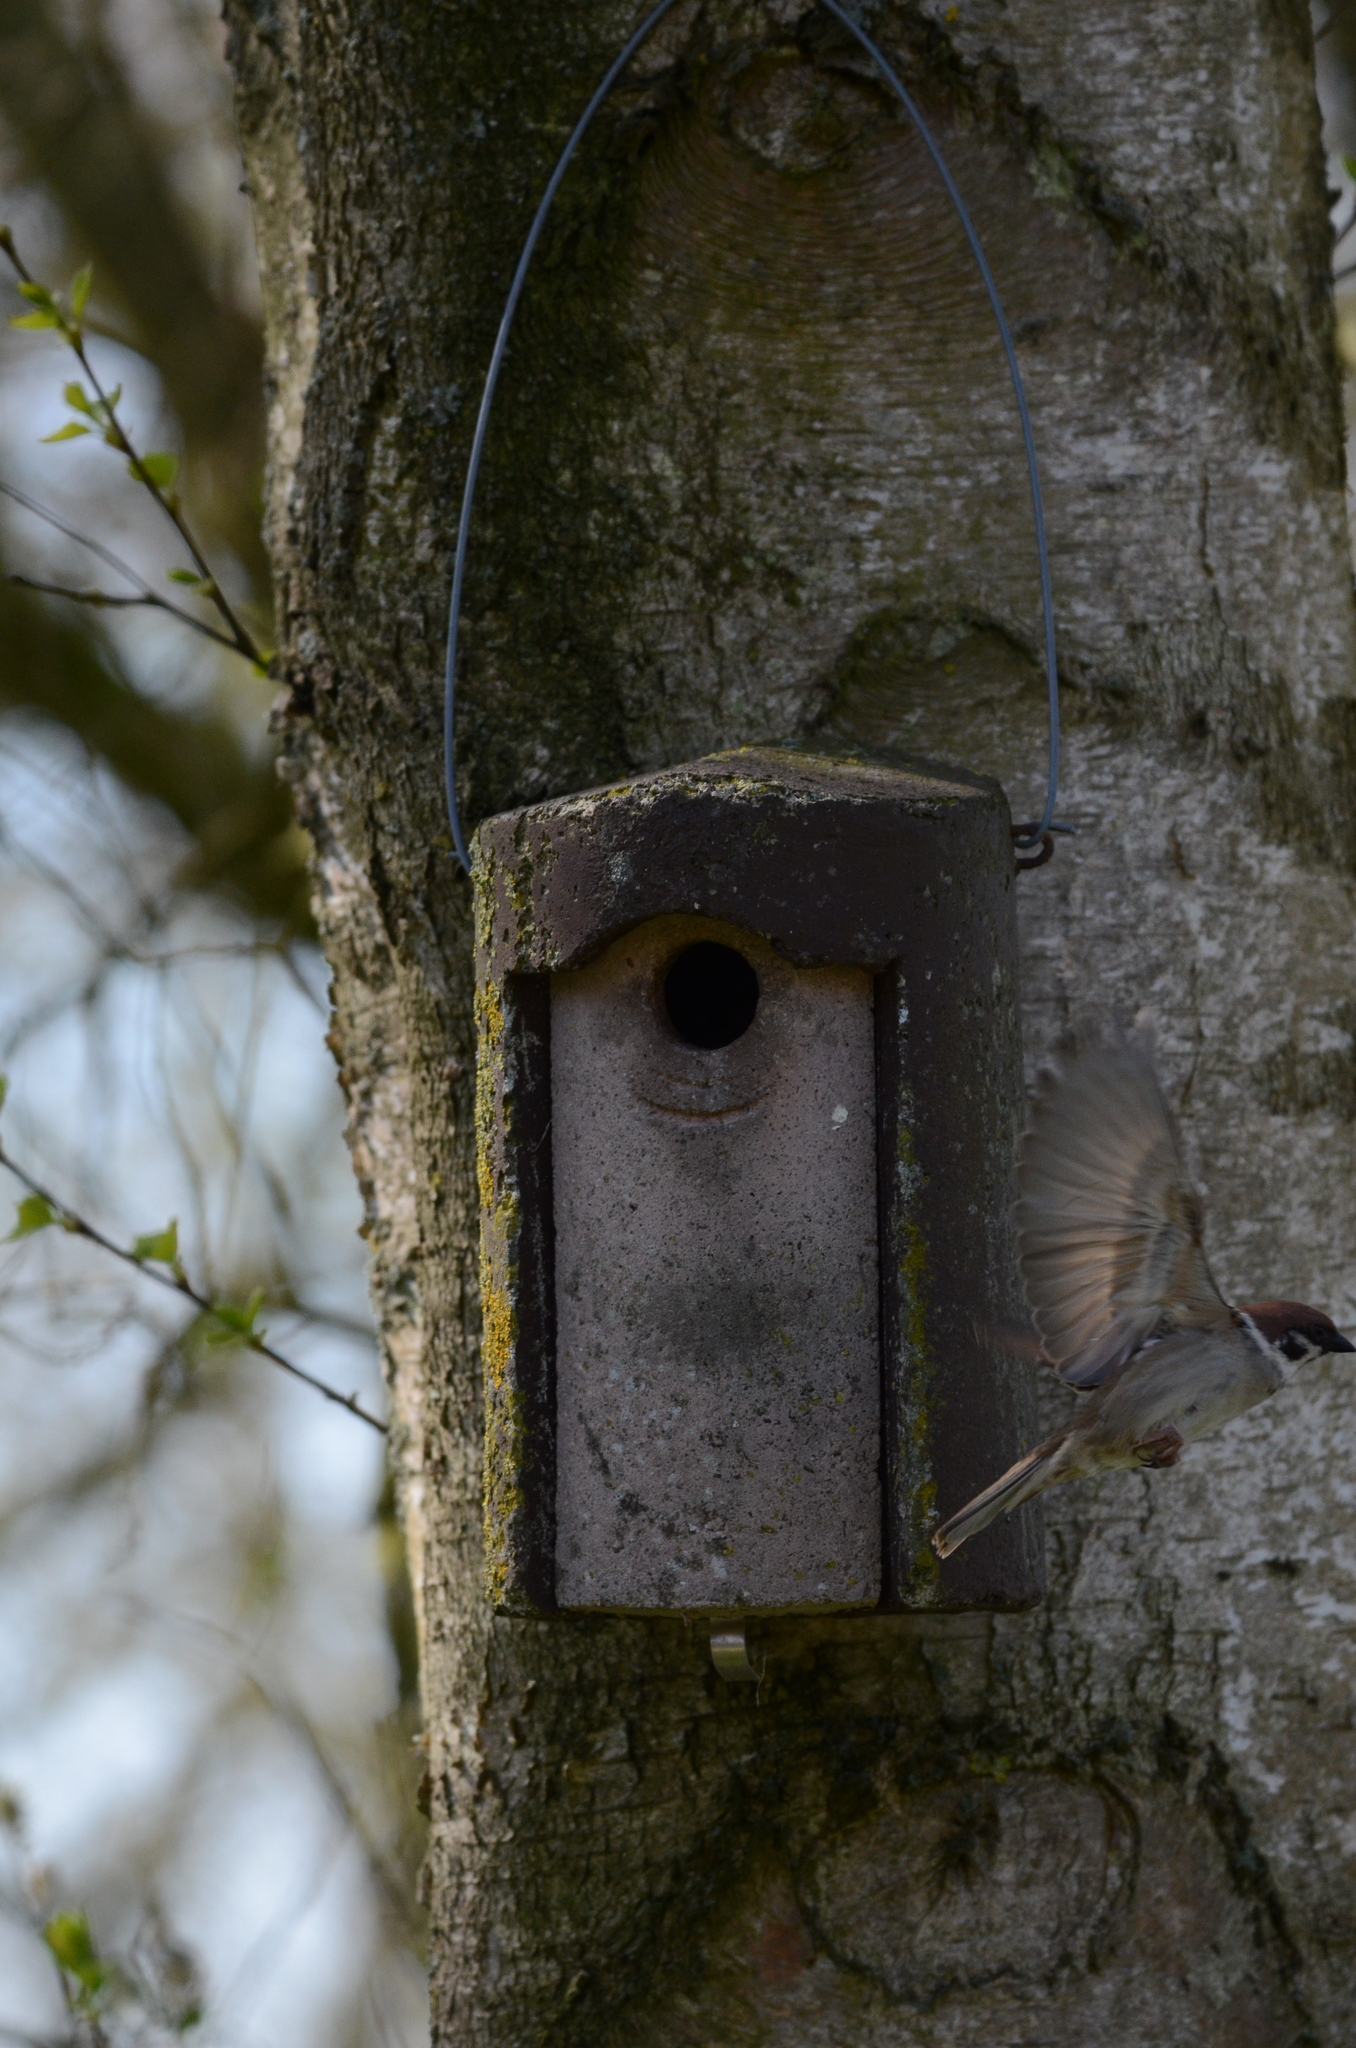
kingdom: Animalia
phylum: Chordata
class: Aves
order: Passeriformes
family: Passeridae
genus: Passer
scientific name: Passer montanus
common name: Eurasian tree sparrow
